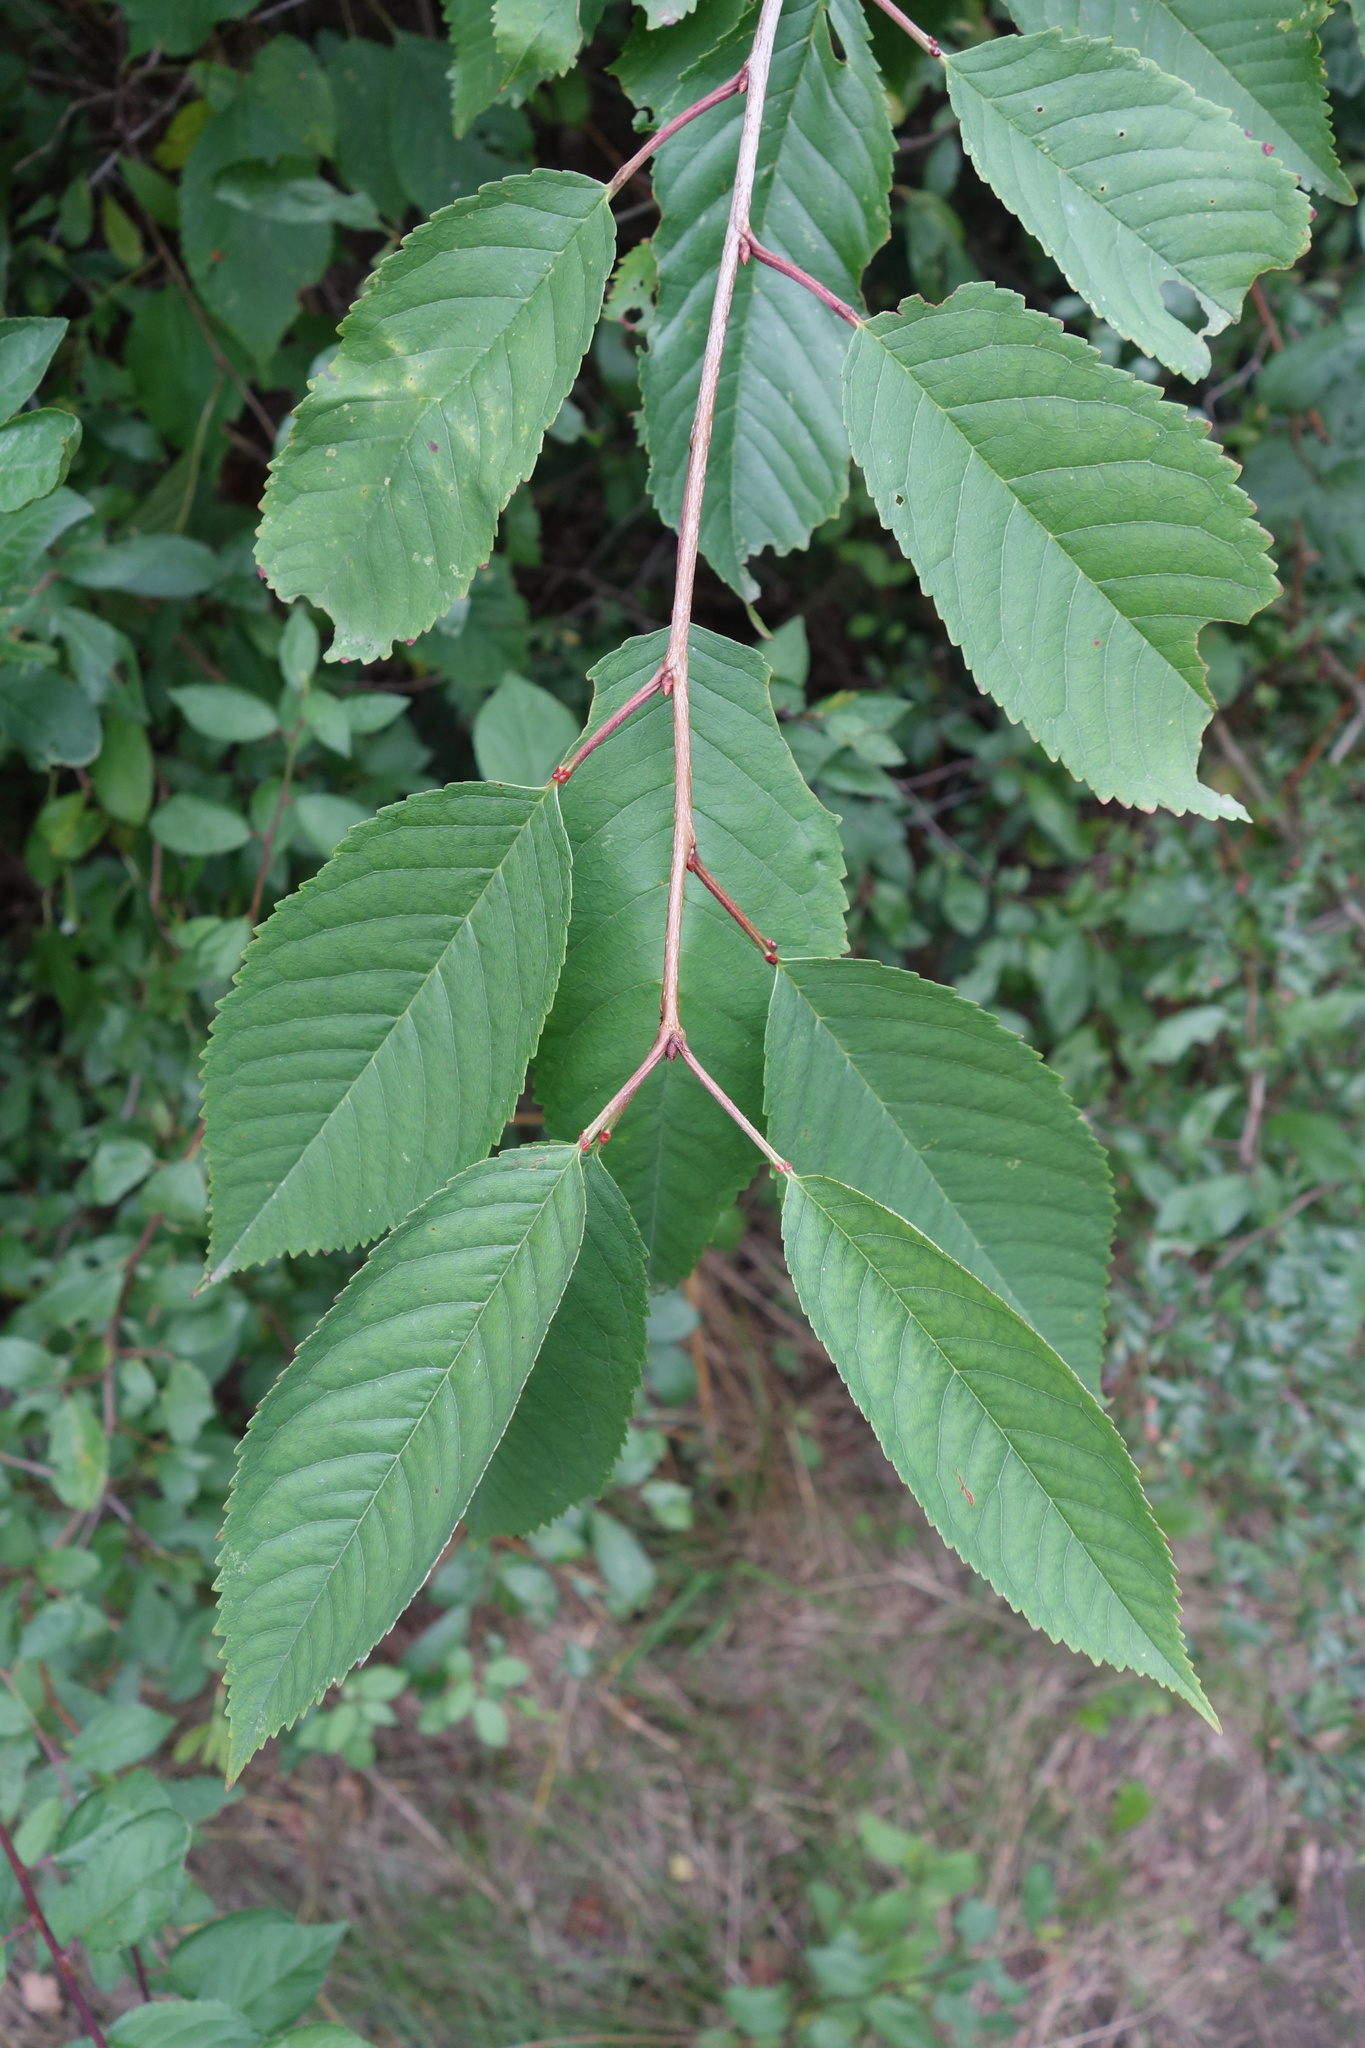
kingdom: Plantae
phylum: Tracheophyta
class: Magnoliopsida
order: Rosales
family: Rosaceae
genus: Prunus
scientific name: Prunus avium
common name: Sweet cherry
